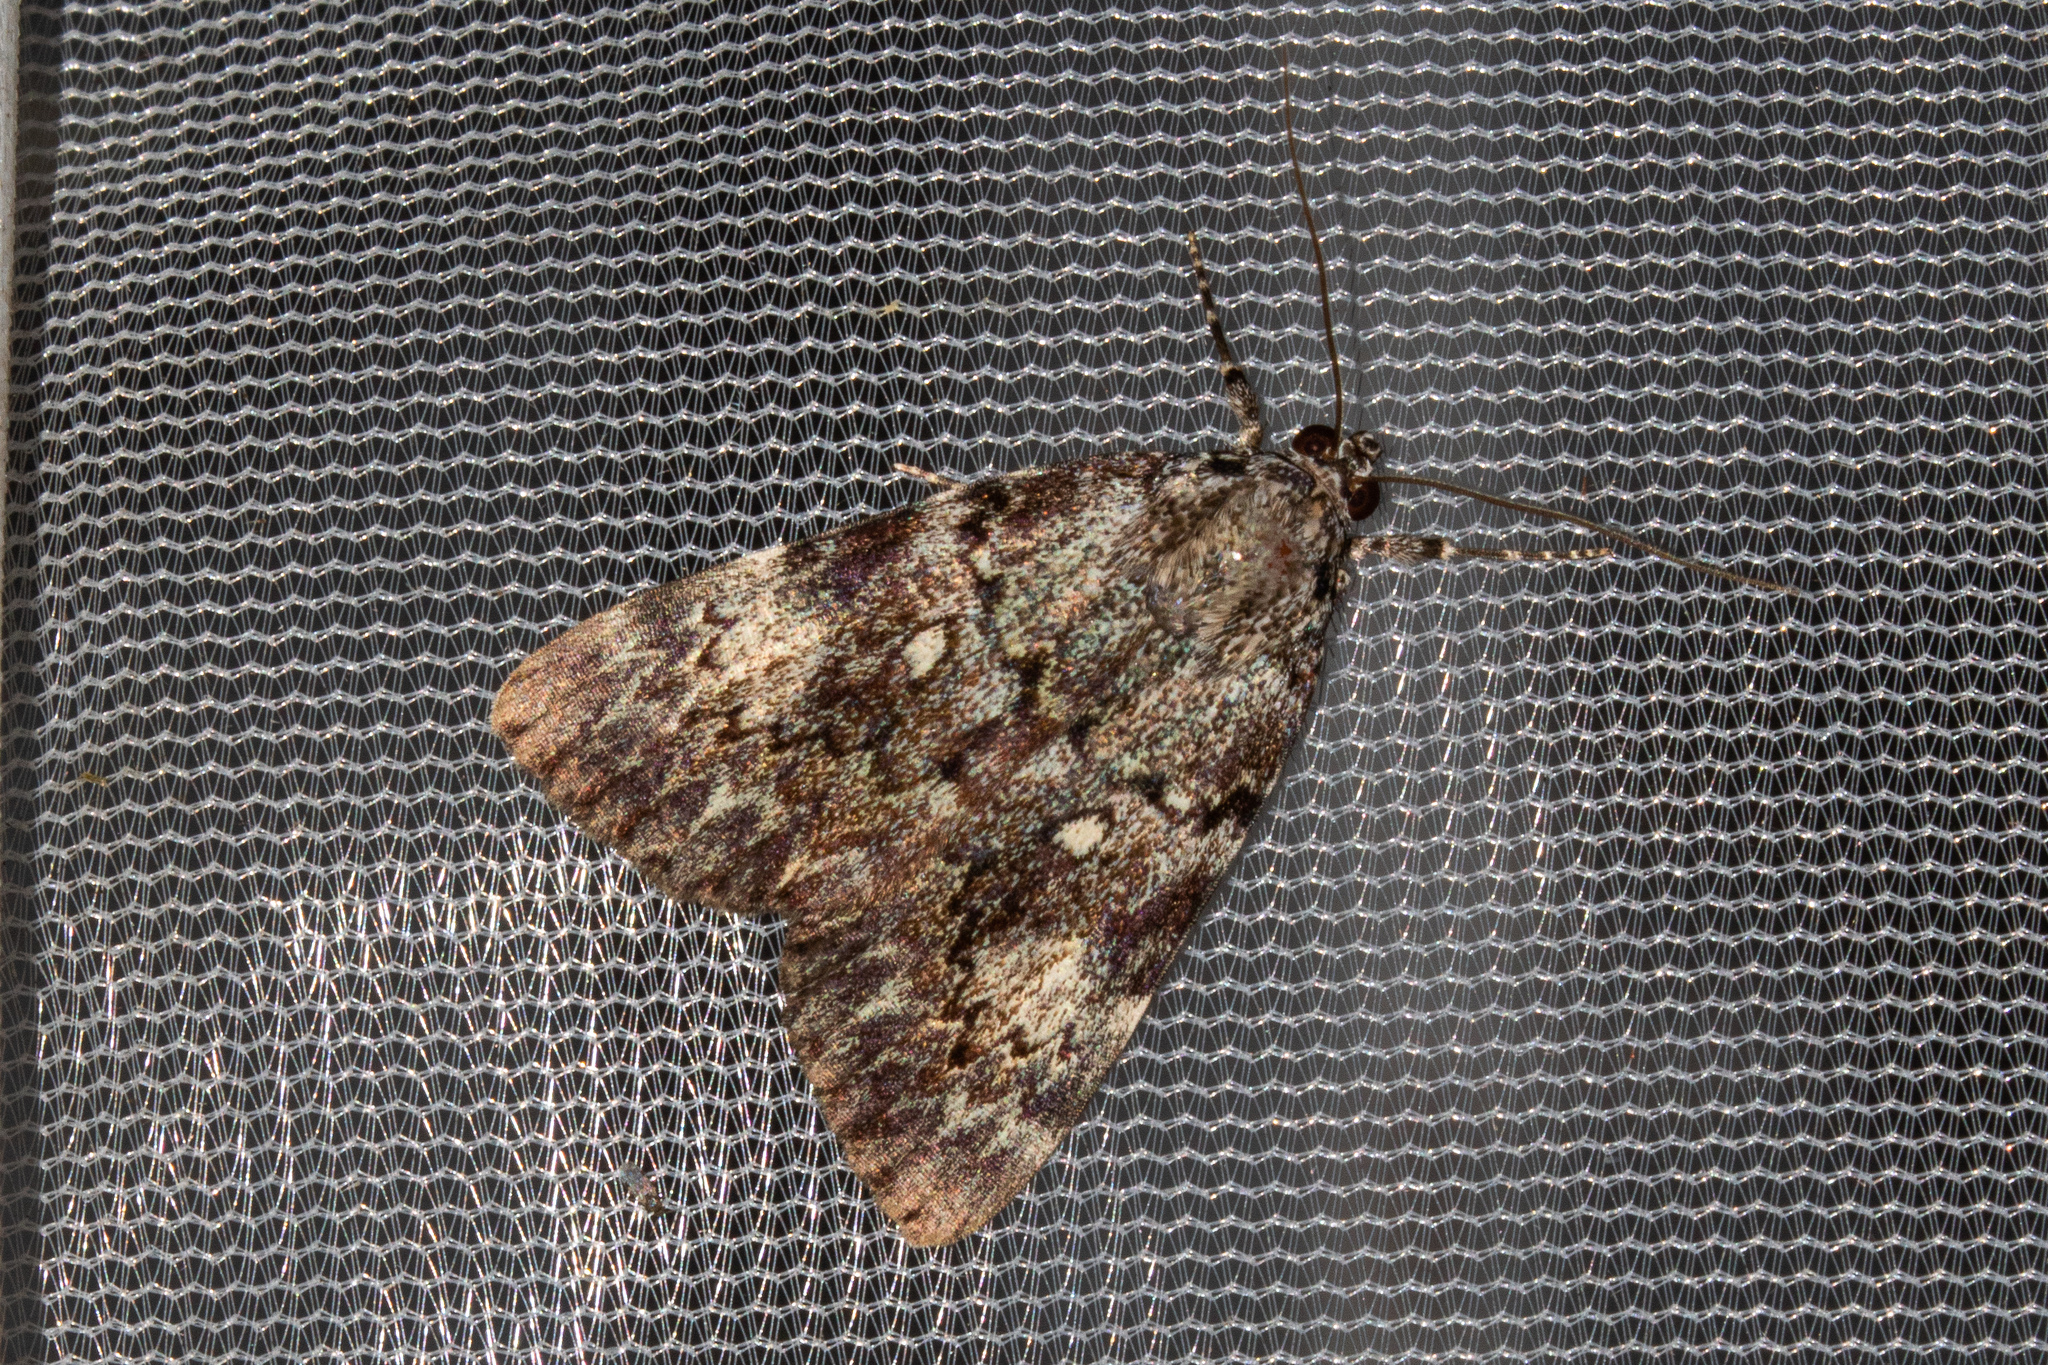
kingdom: Animalia
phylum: Arthropoda
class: Insecta
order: Lepidoptera
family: Erebidae
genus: Catocala
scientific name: Catocala lineella
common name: Little lined underwing
